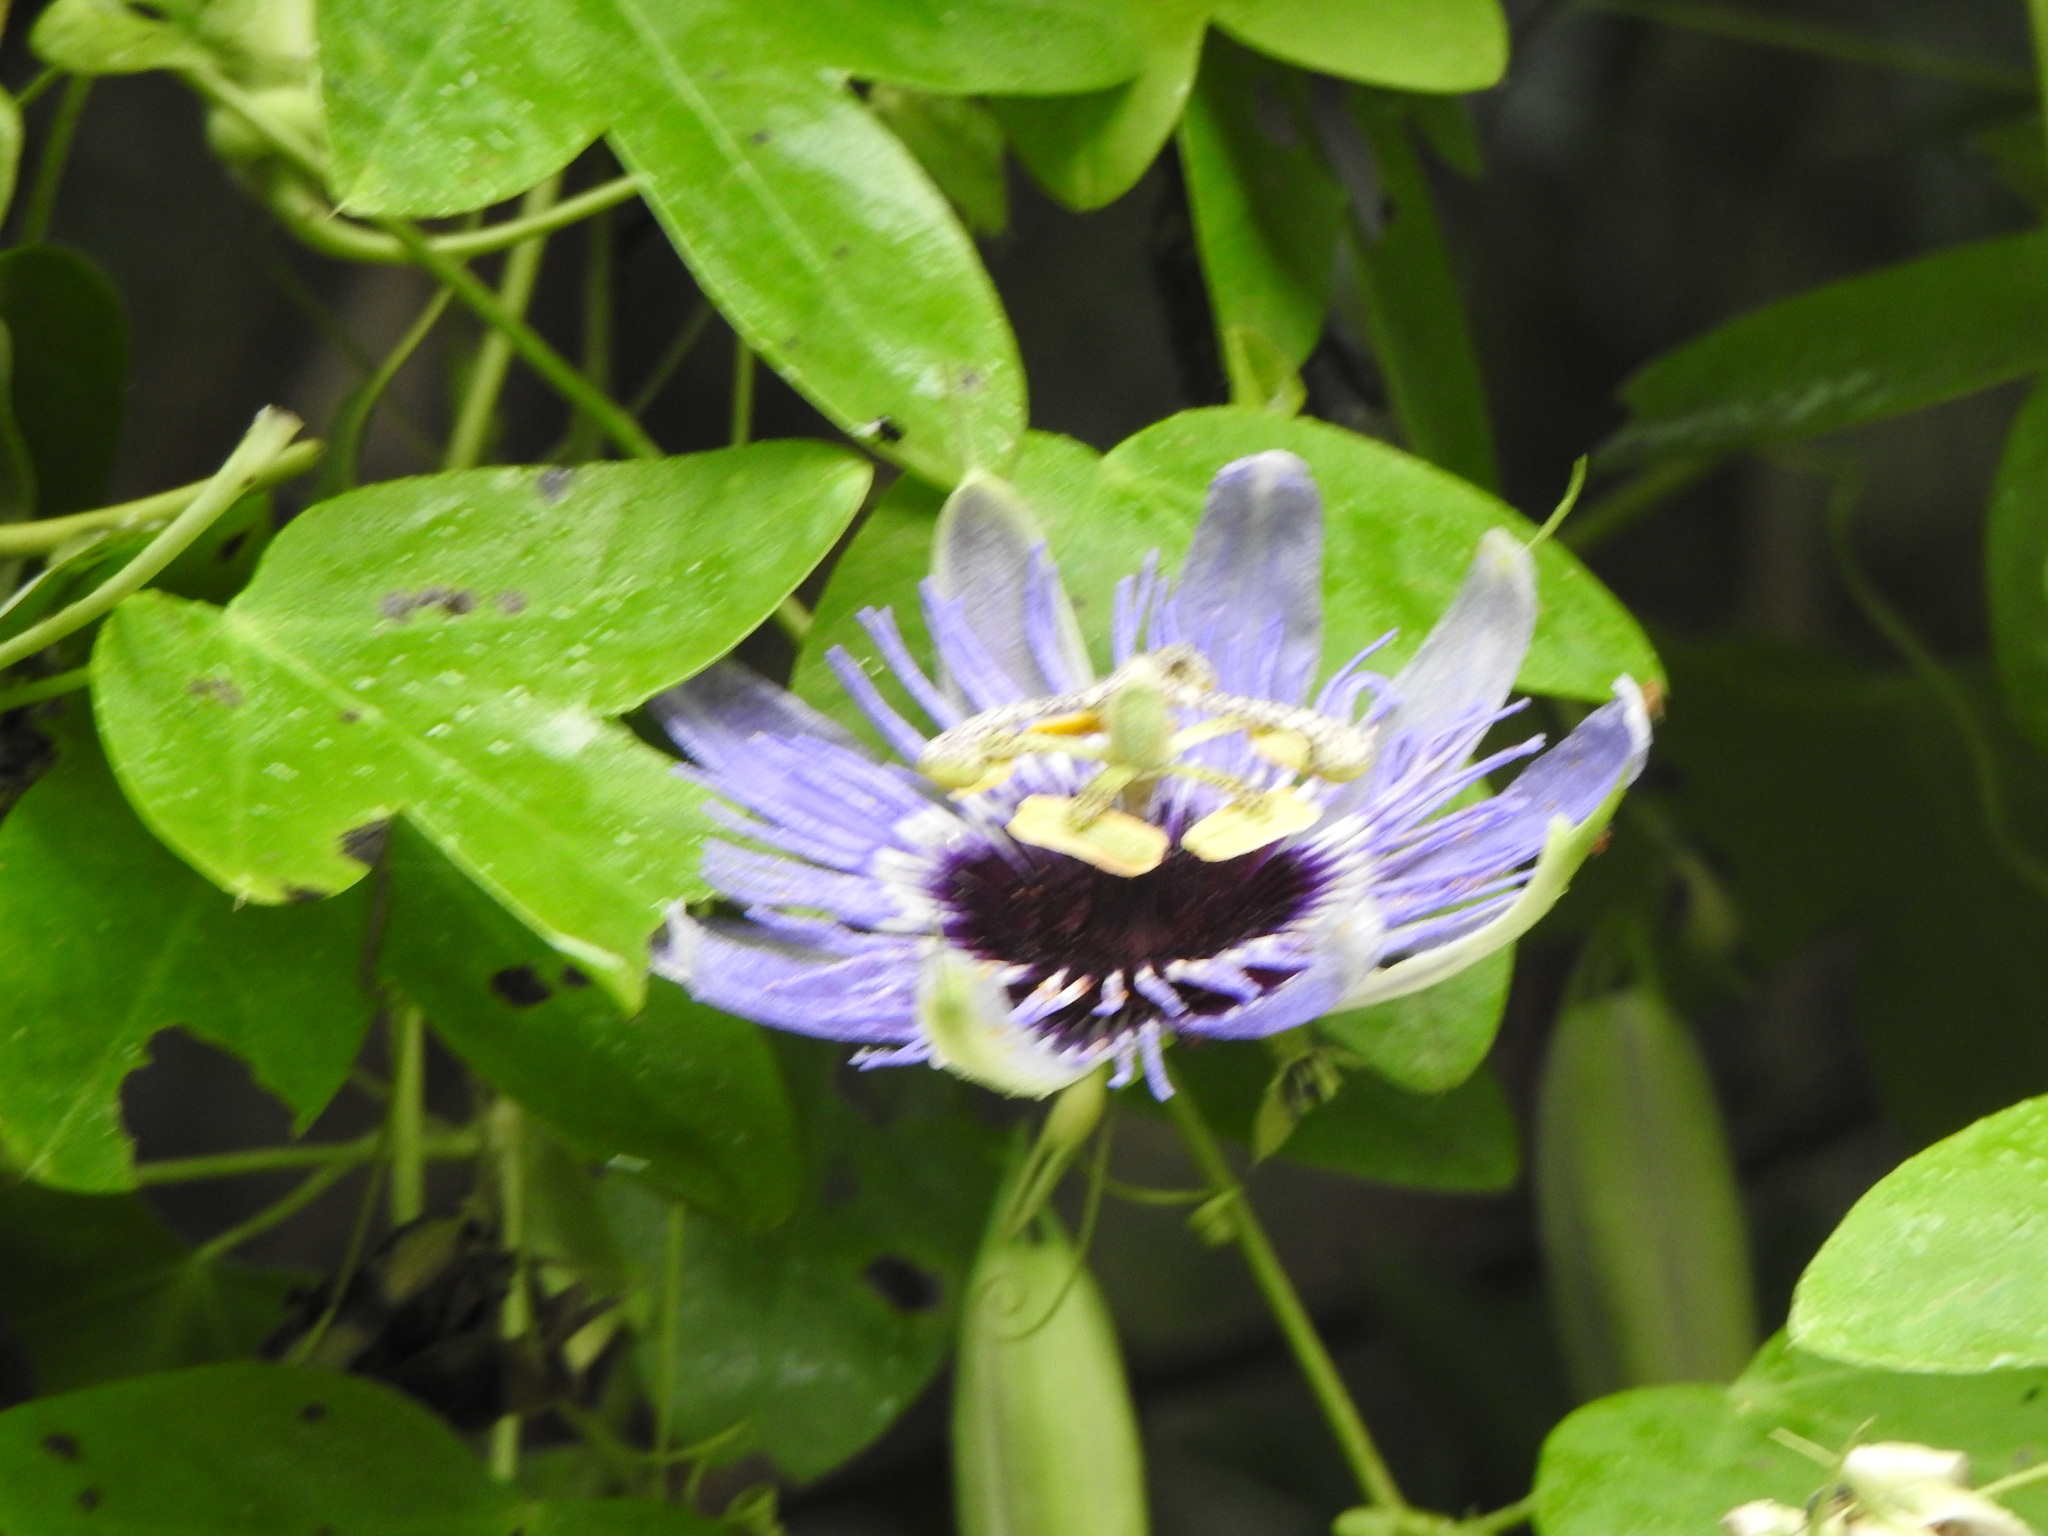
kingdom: Plantae
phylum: Tracheophyta
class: Magnoliopsida
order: Malpighiales
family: Passifloraceae
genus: Passiflora
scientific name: Passiflora amethystina
